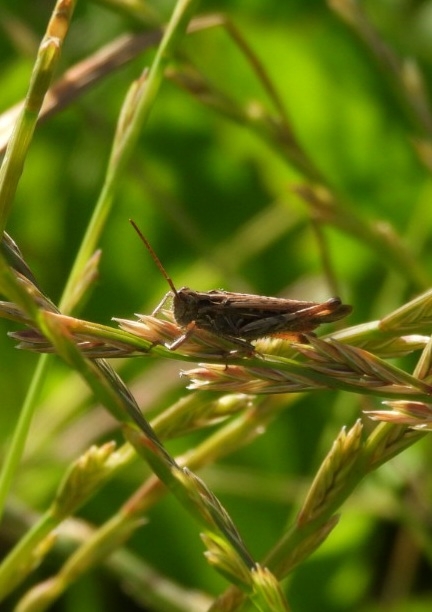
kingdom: Animalia
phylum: Arthropoda
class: Insecta
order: Orthoptera
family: Acrididae
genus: Chorthippus
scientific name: Chorthippus brunneus
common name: Field grasshopper
